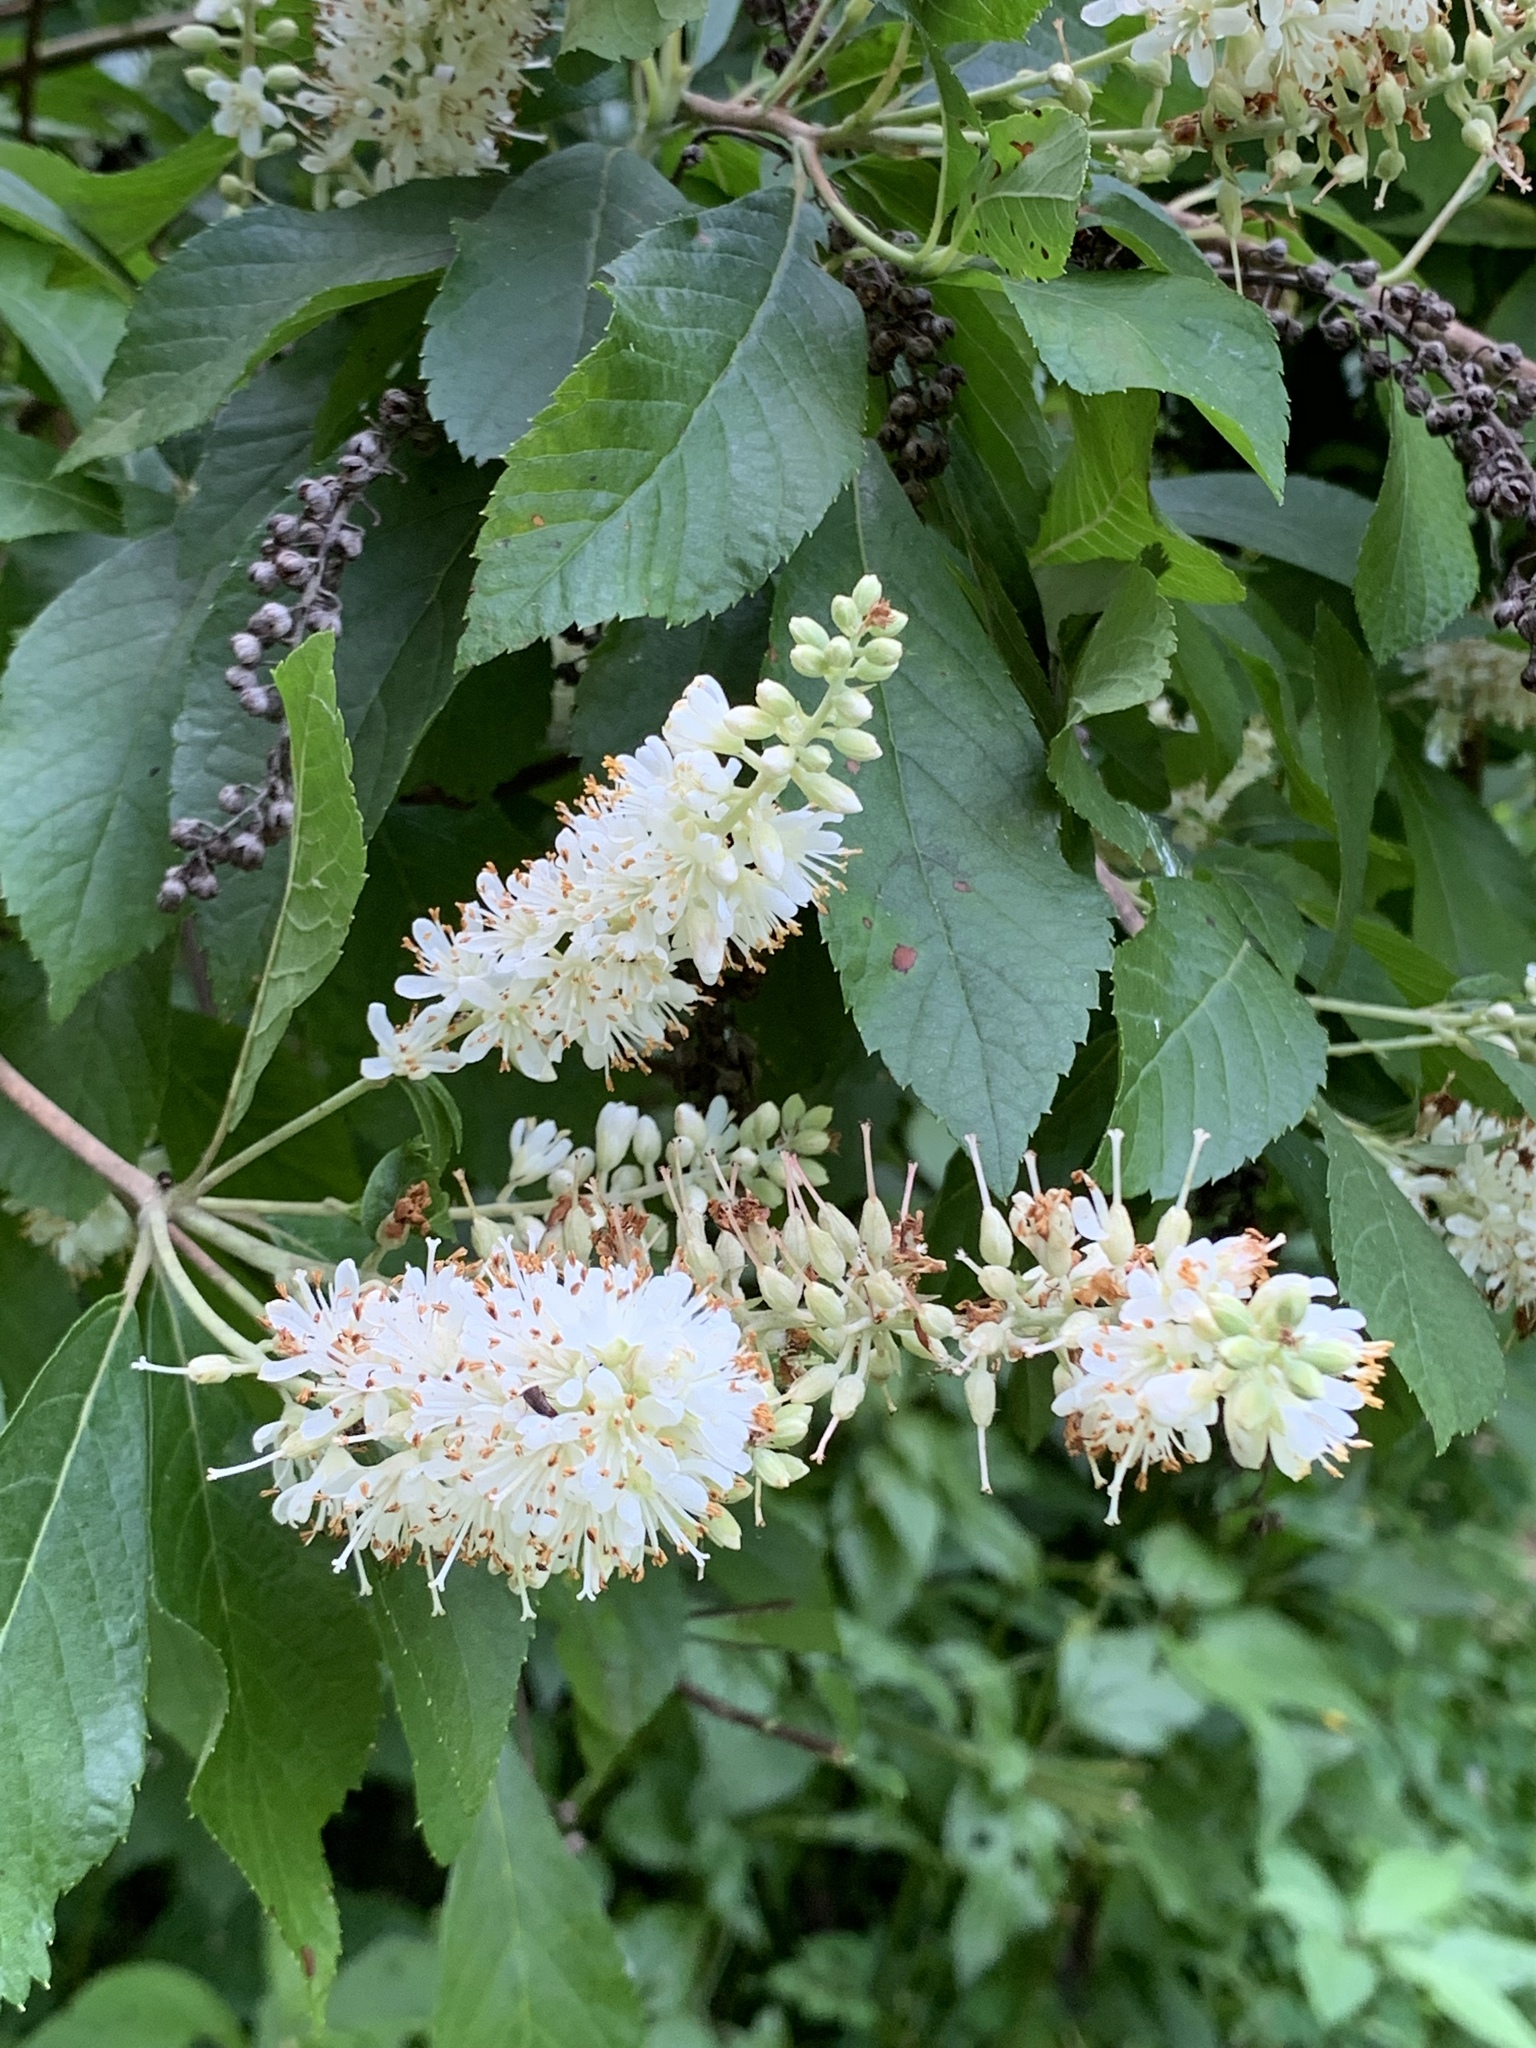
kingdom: Plantae
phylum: Tracheophyta
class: Magnoliopsida
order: Ericales
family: Clethraceae
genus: Clethra
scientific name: Clethra alnifolia
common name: Sweet pepperbush
